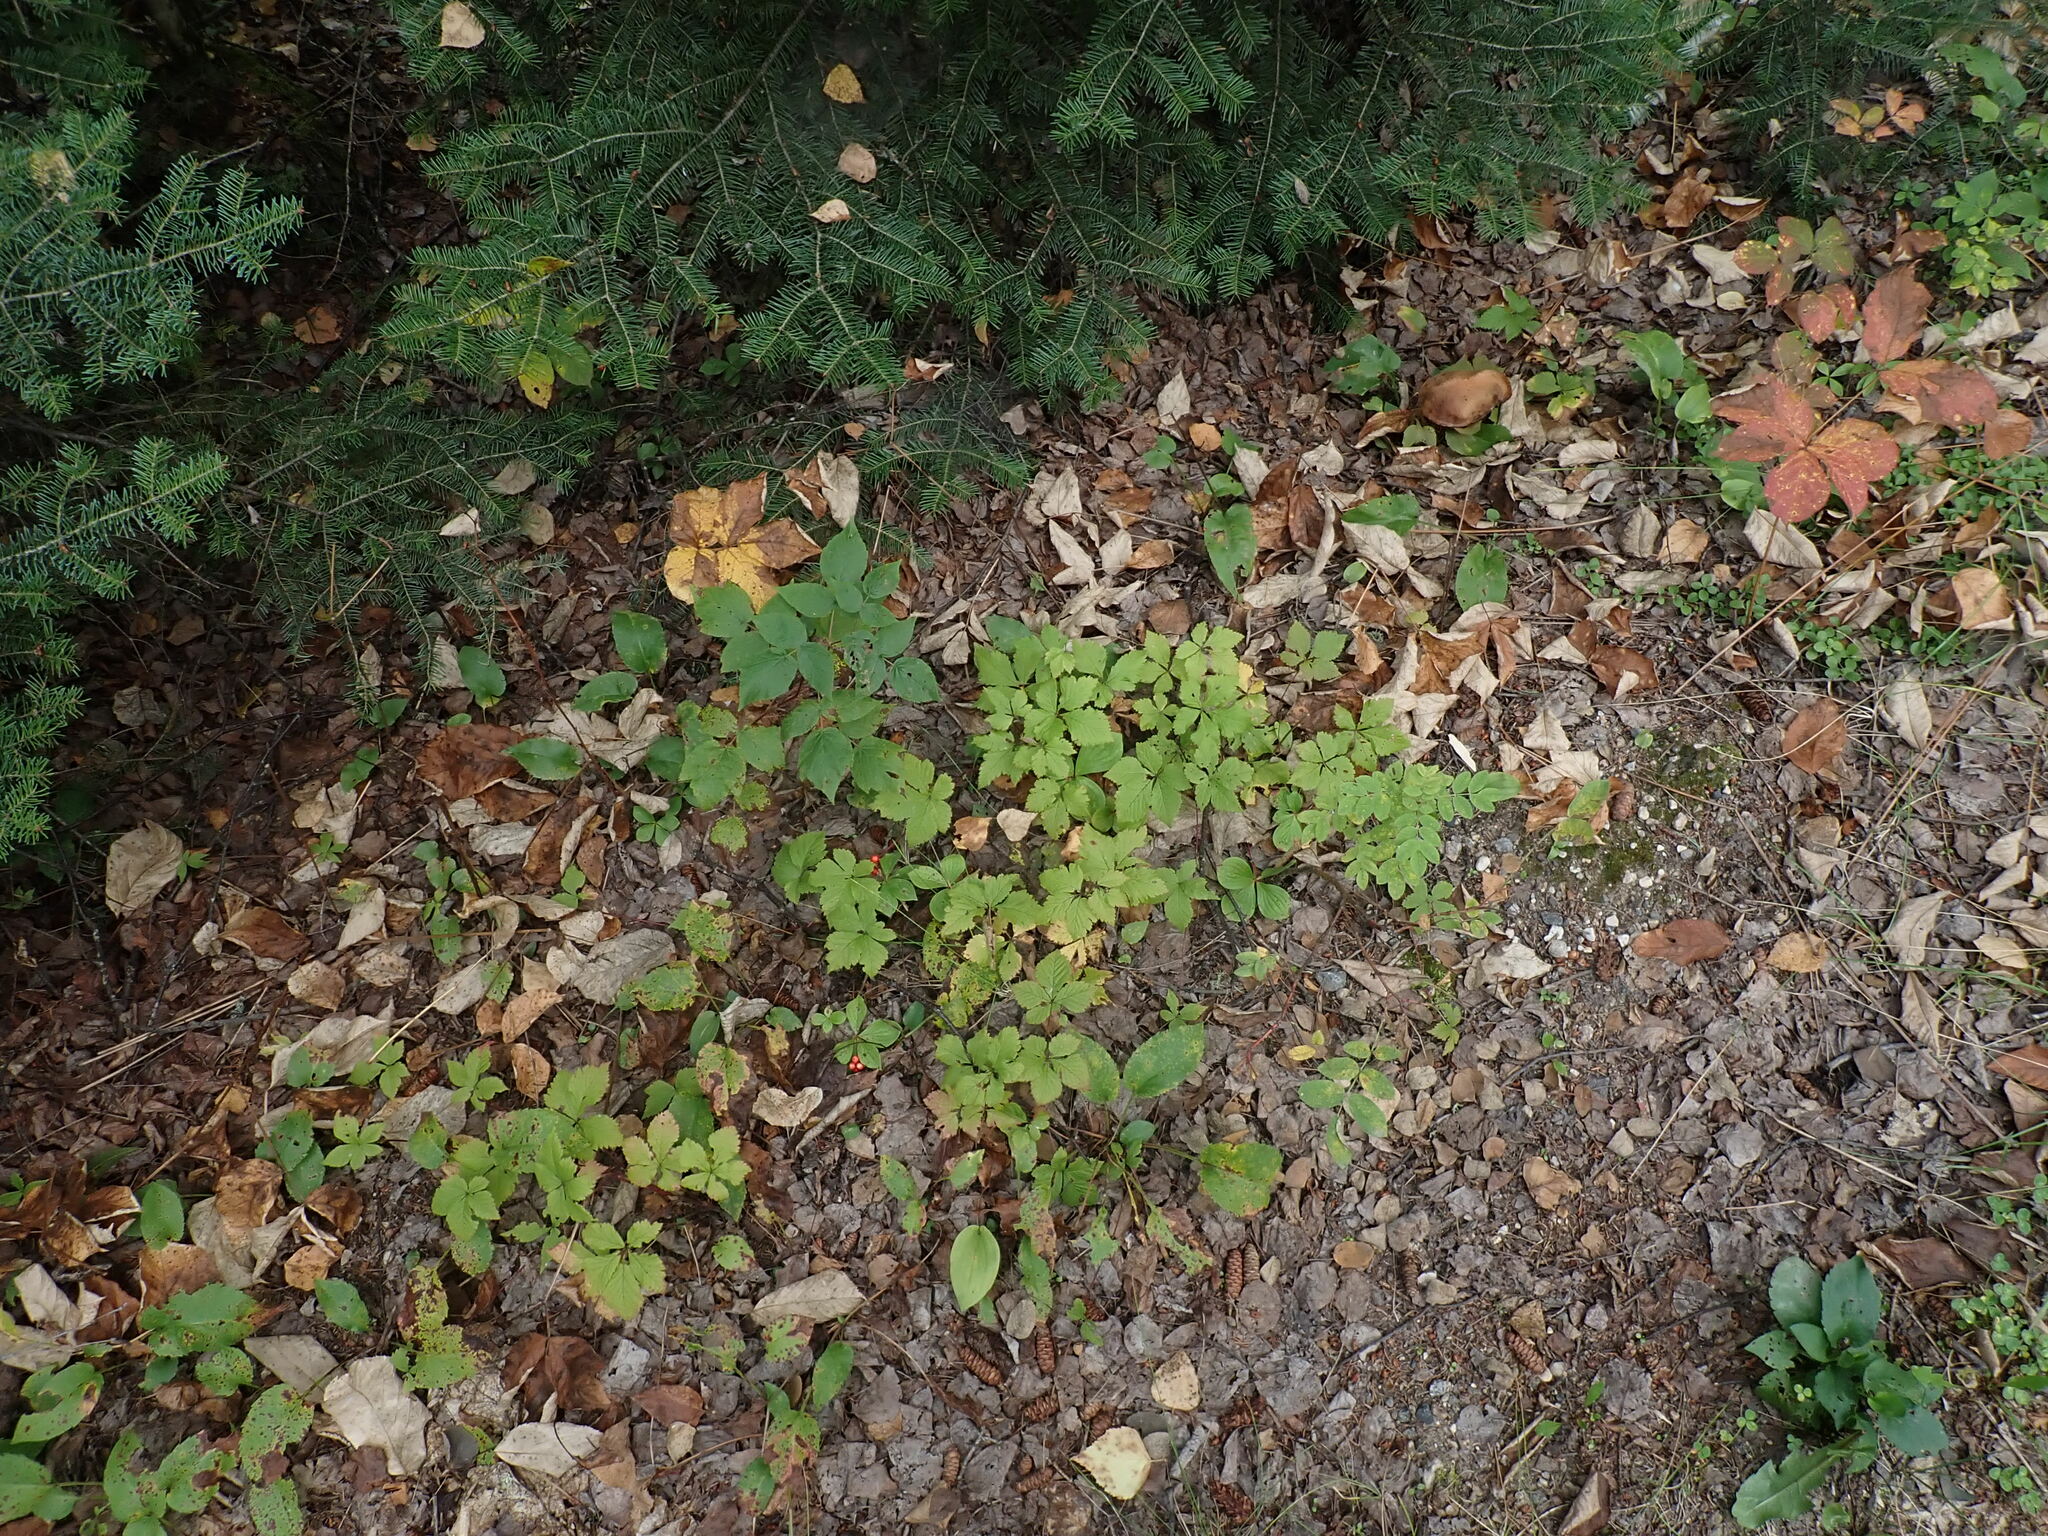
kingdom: Plantae
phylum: Tracheophyta
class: Magnoliopsida
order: Rosales
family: Rosaceae
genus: Rubus
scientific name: Rubus pubescens
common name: Dwarf raspberry
